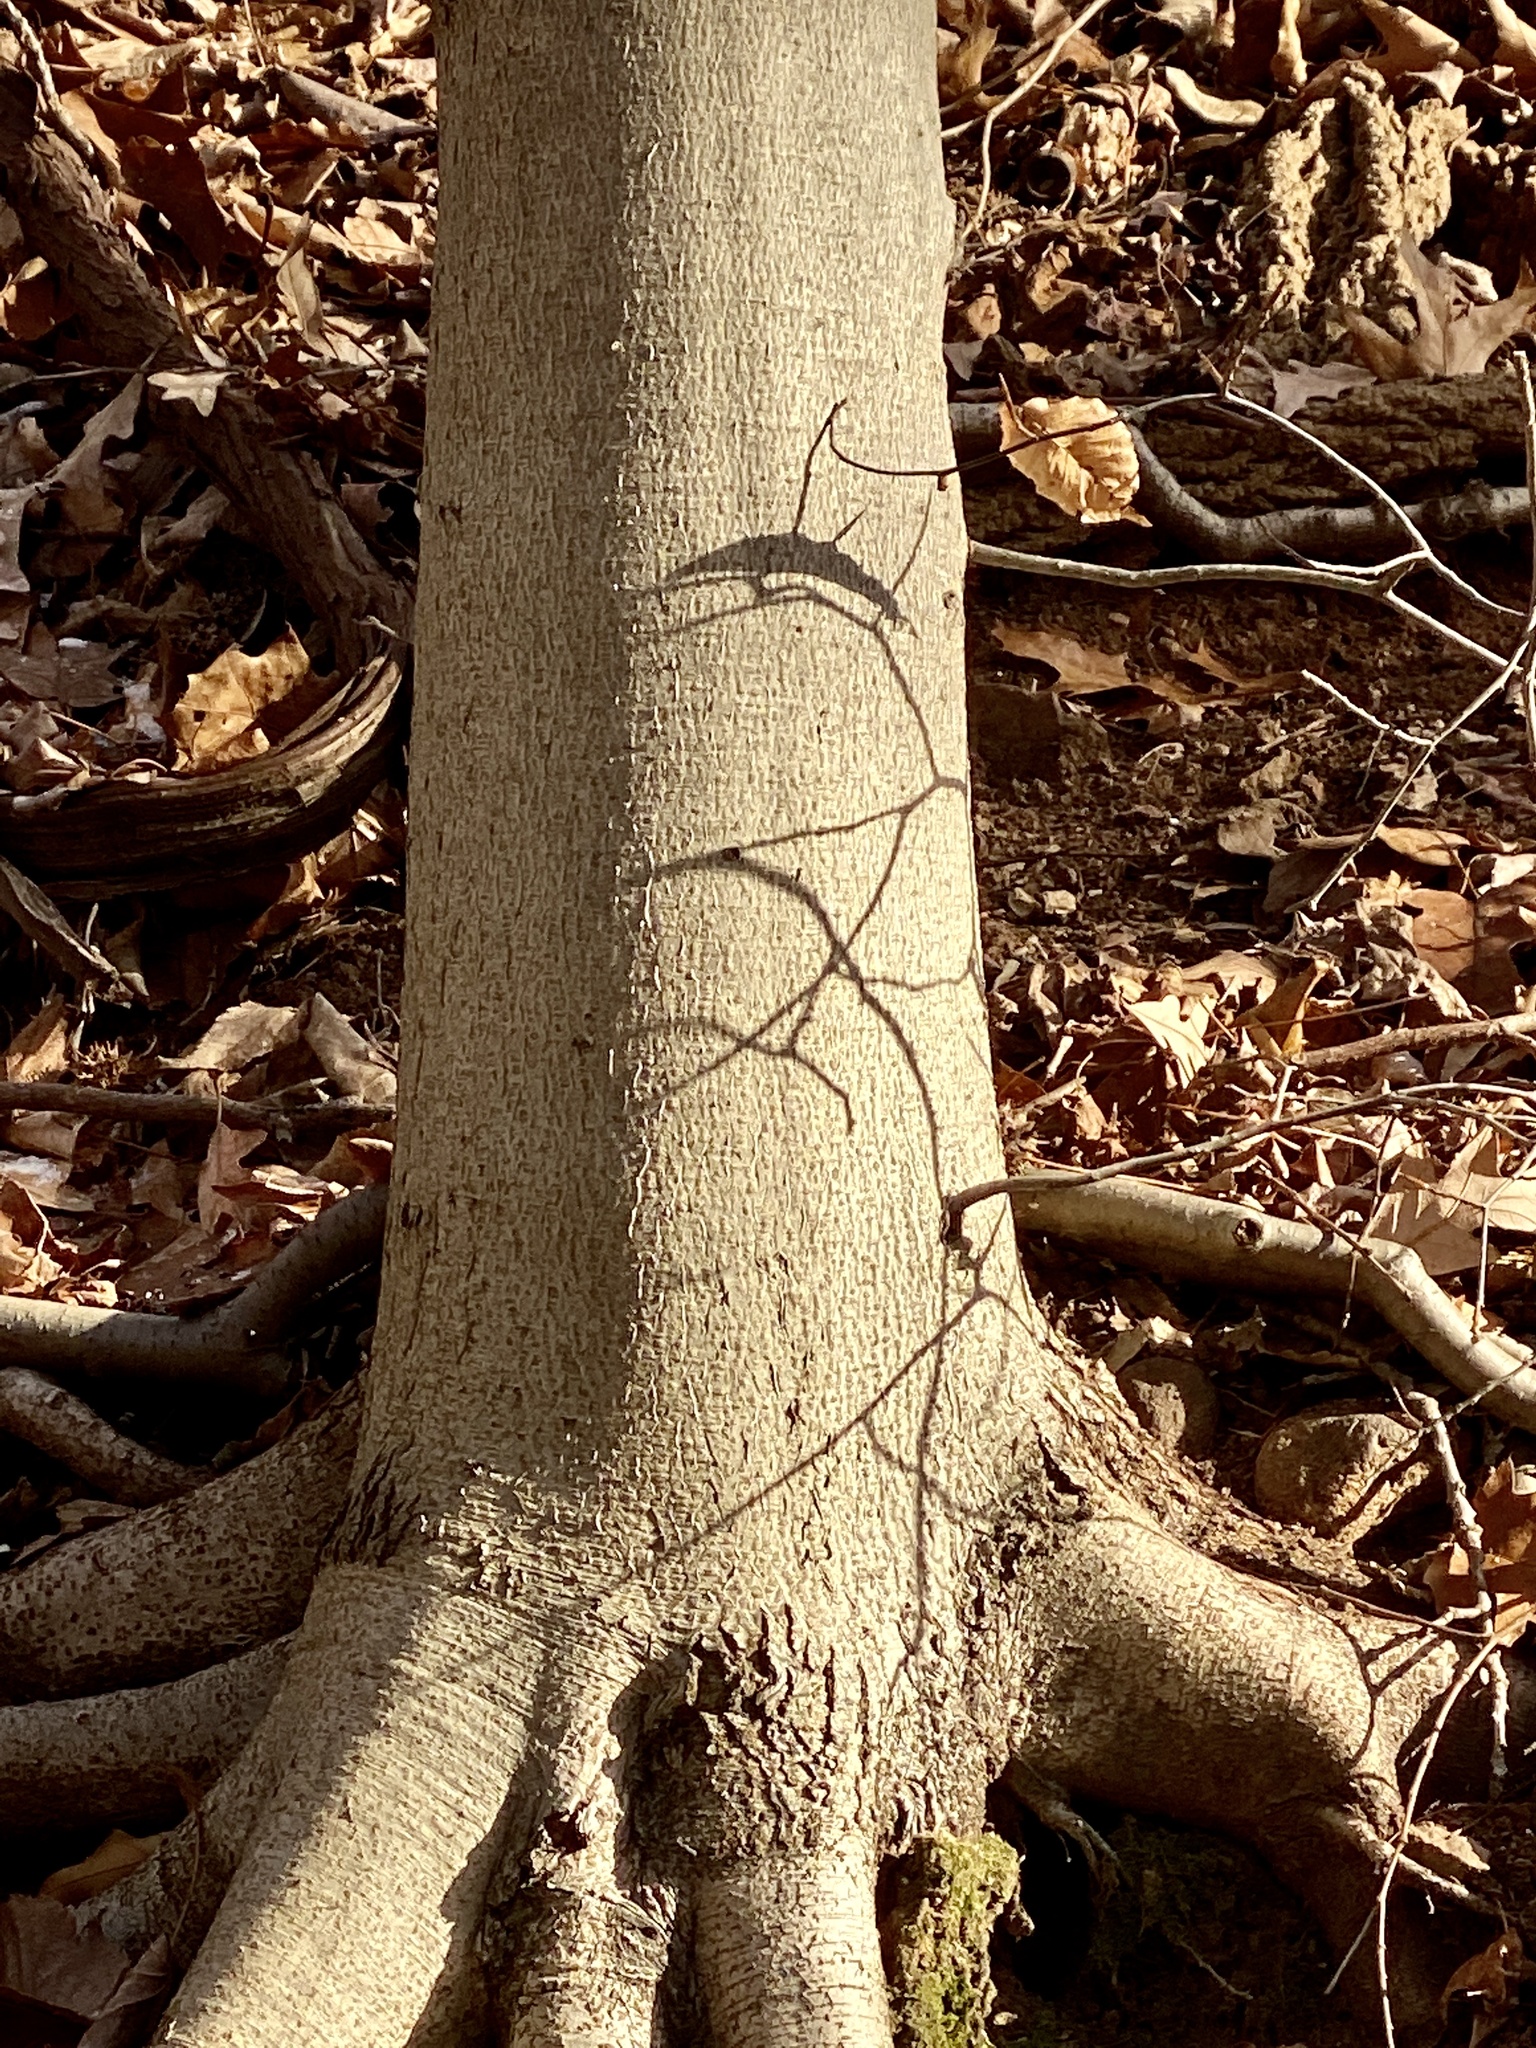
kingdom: Plantae
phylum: Tracheophyta
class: Magnoliopsida
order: Fagales
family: Fagaceae
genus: Fagus
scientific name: Fagus grandifolia
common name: American beech
